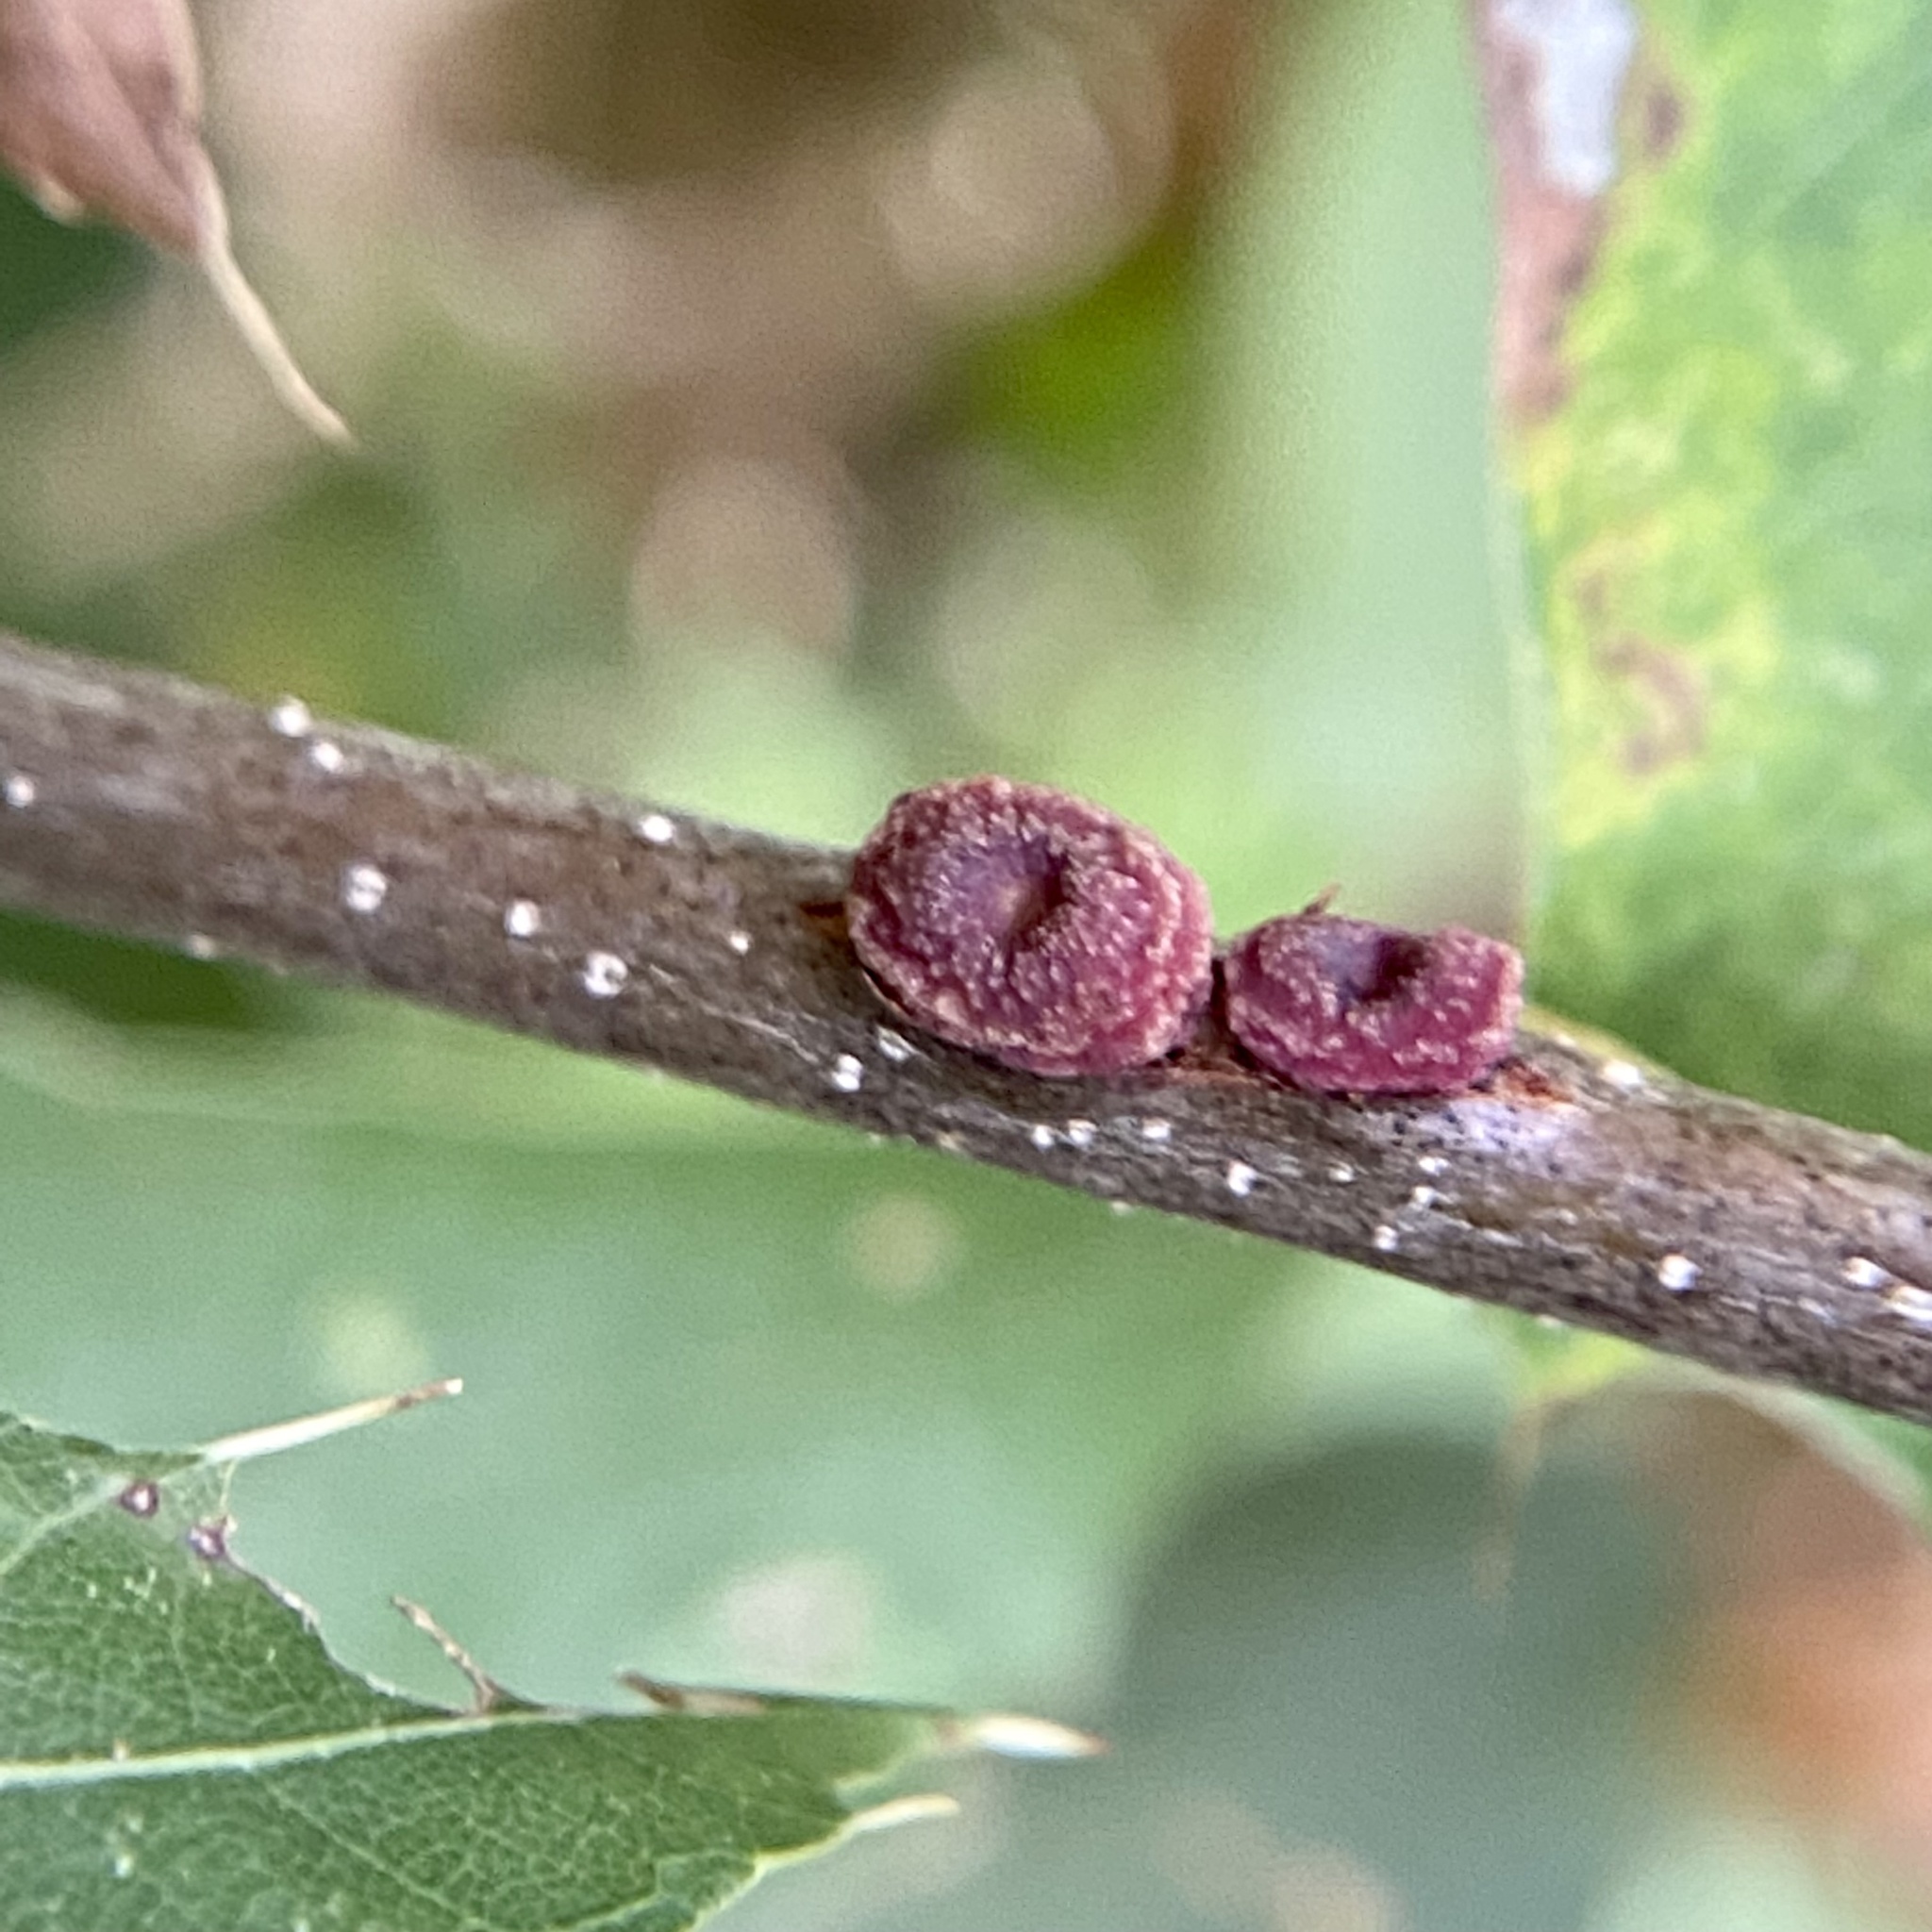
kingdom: Animalia
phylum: Arthropoda
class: Insecta
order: Hymenoptera
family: Cynipidae
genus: Kokkocynips
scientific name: Kokkocynips difficilis
